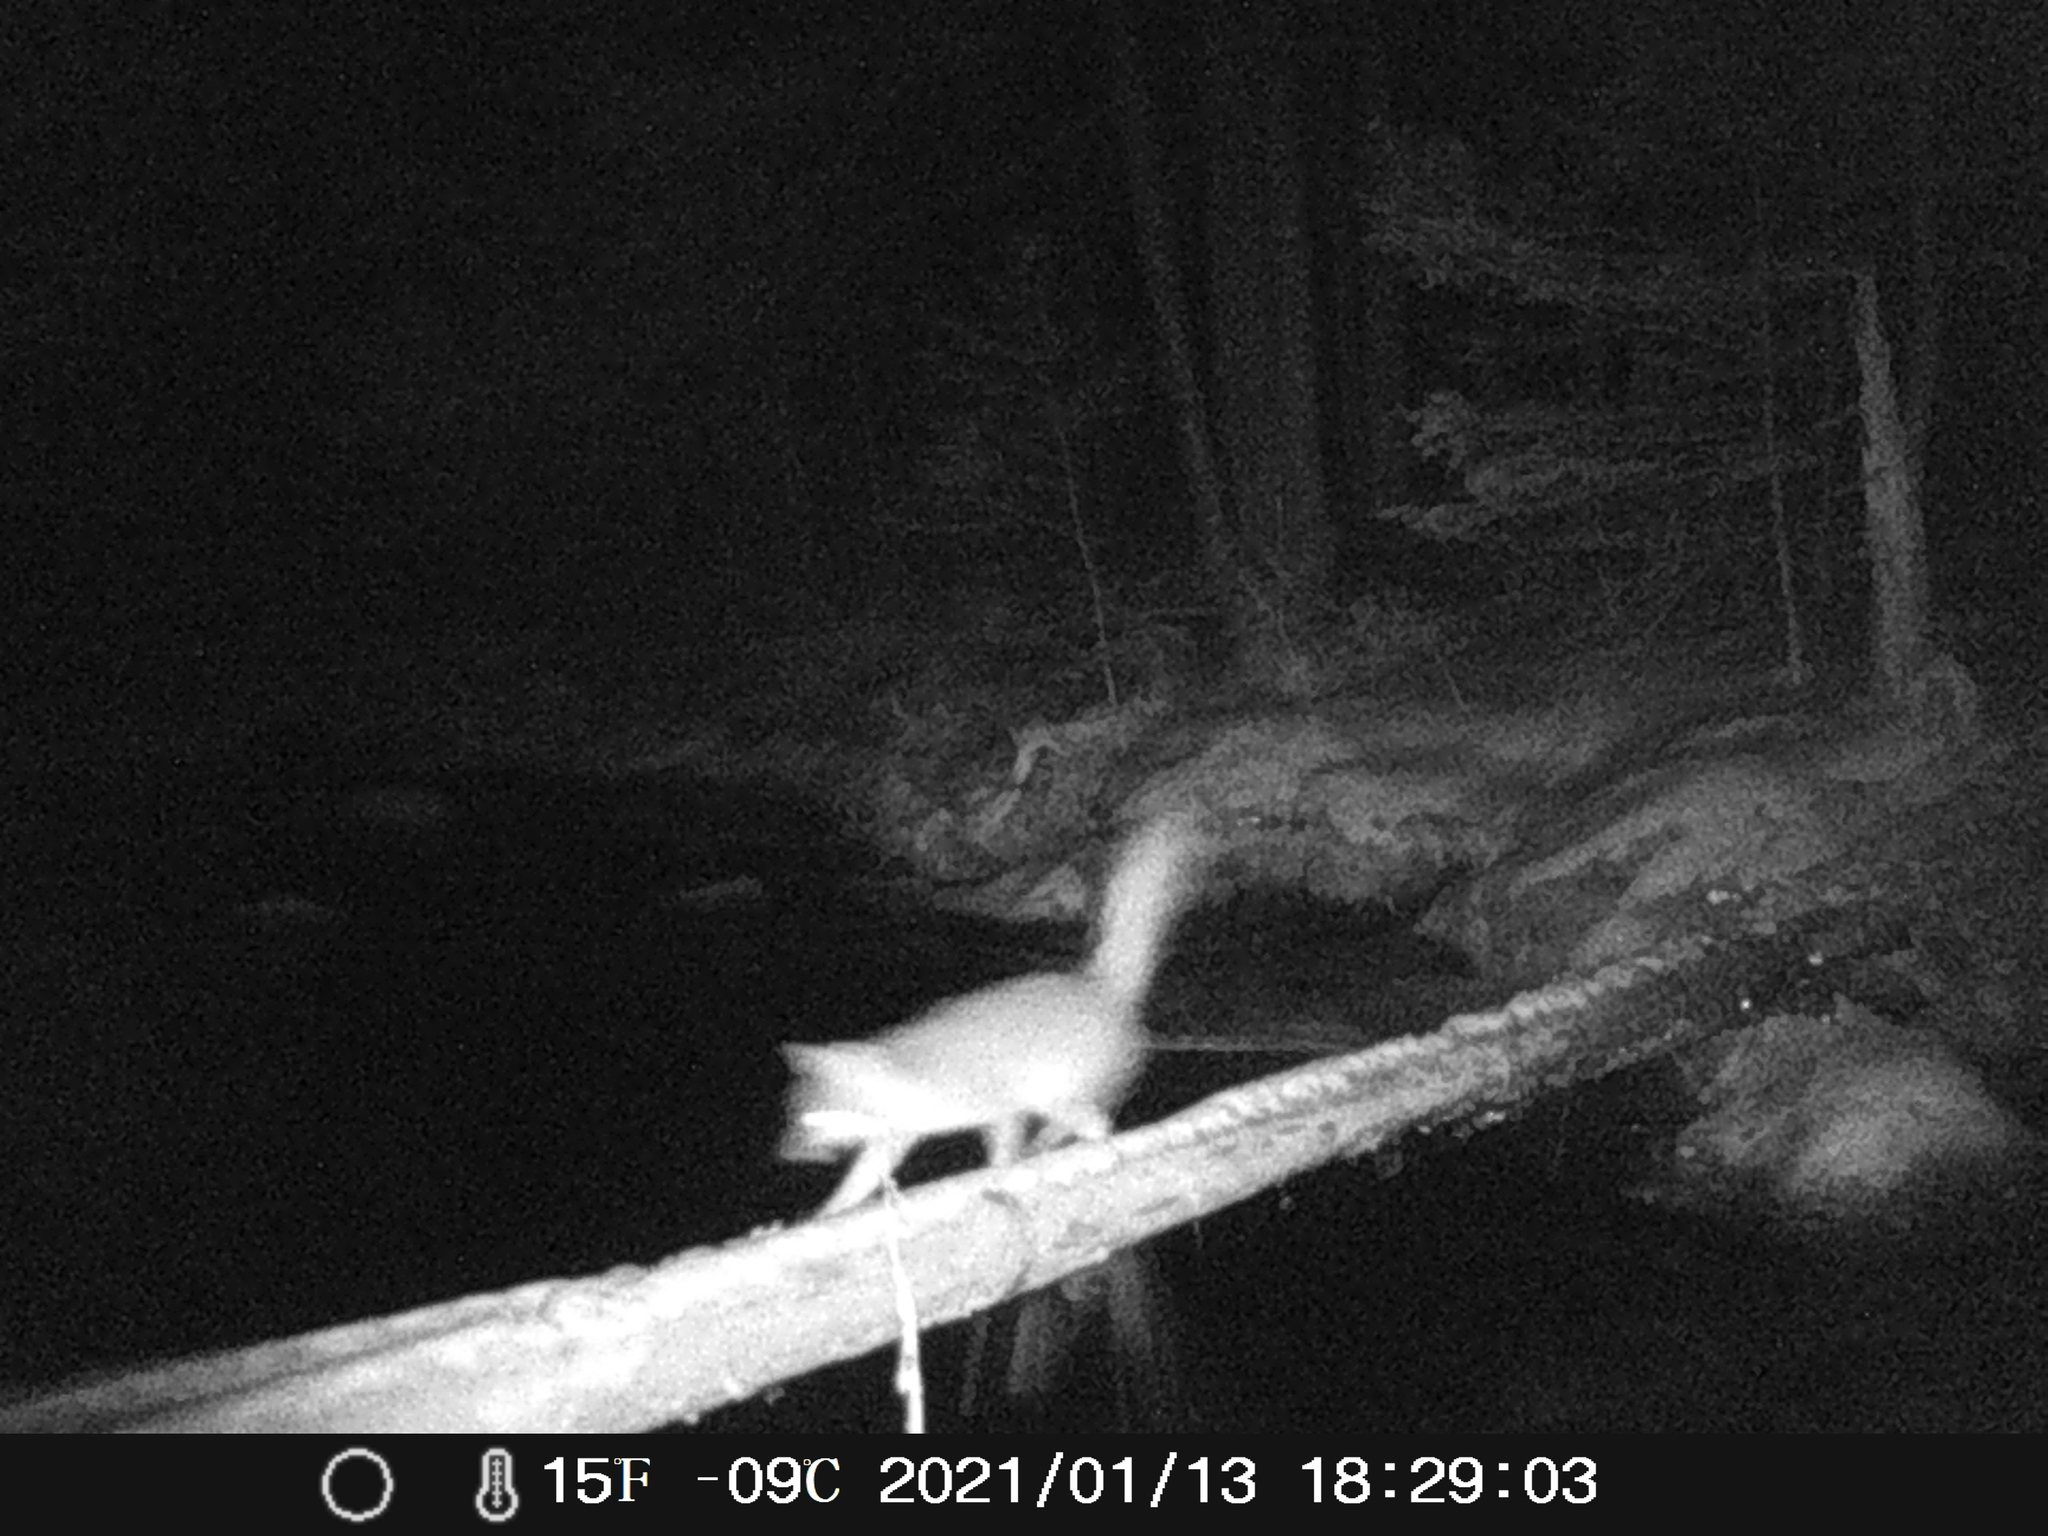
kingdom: Animalia
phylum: Chordata
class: Mammalia
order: Carnivora
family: Canidae
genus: Urocyon
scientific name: Urocyon cinereoargenteus
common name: Gray fox
